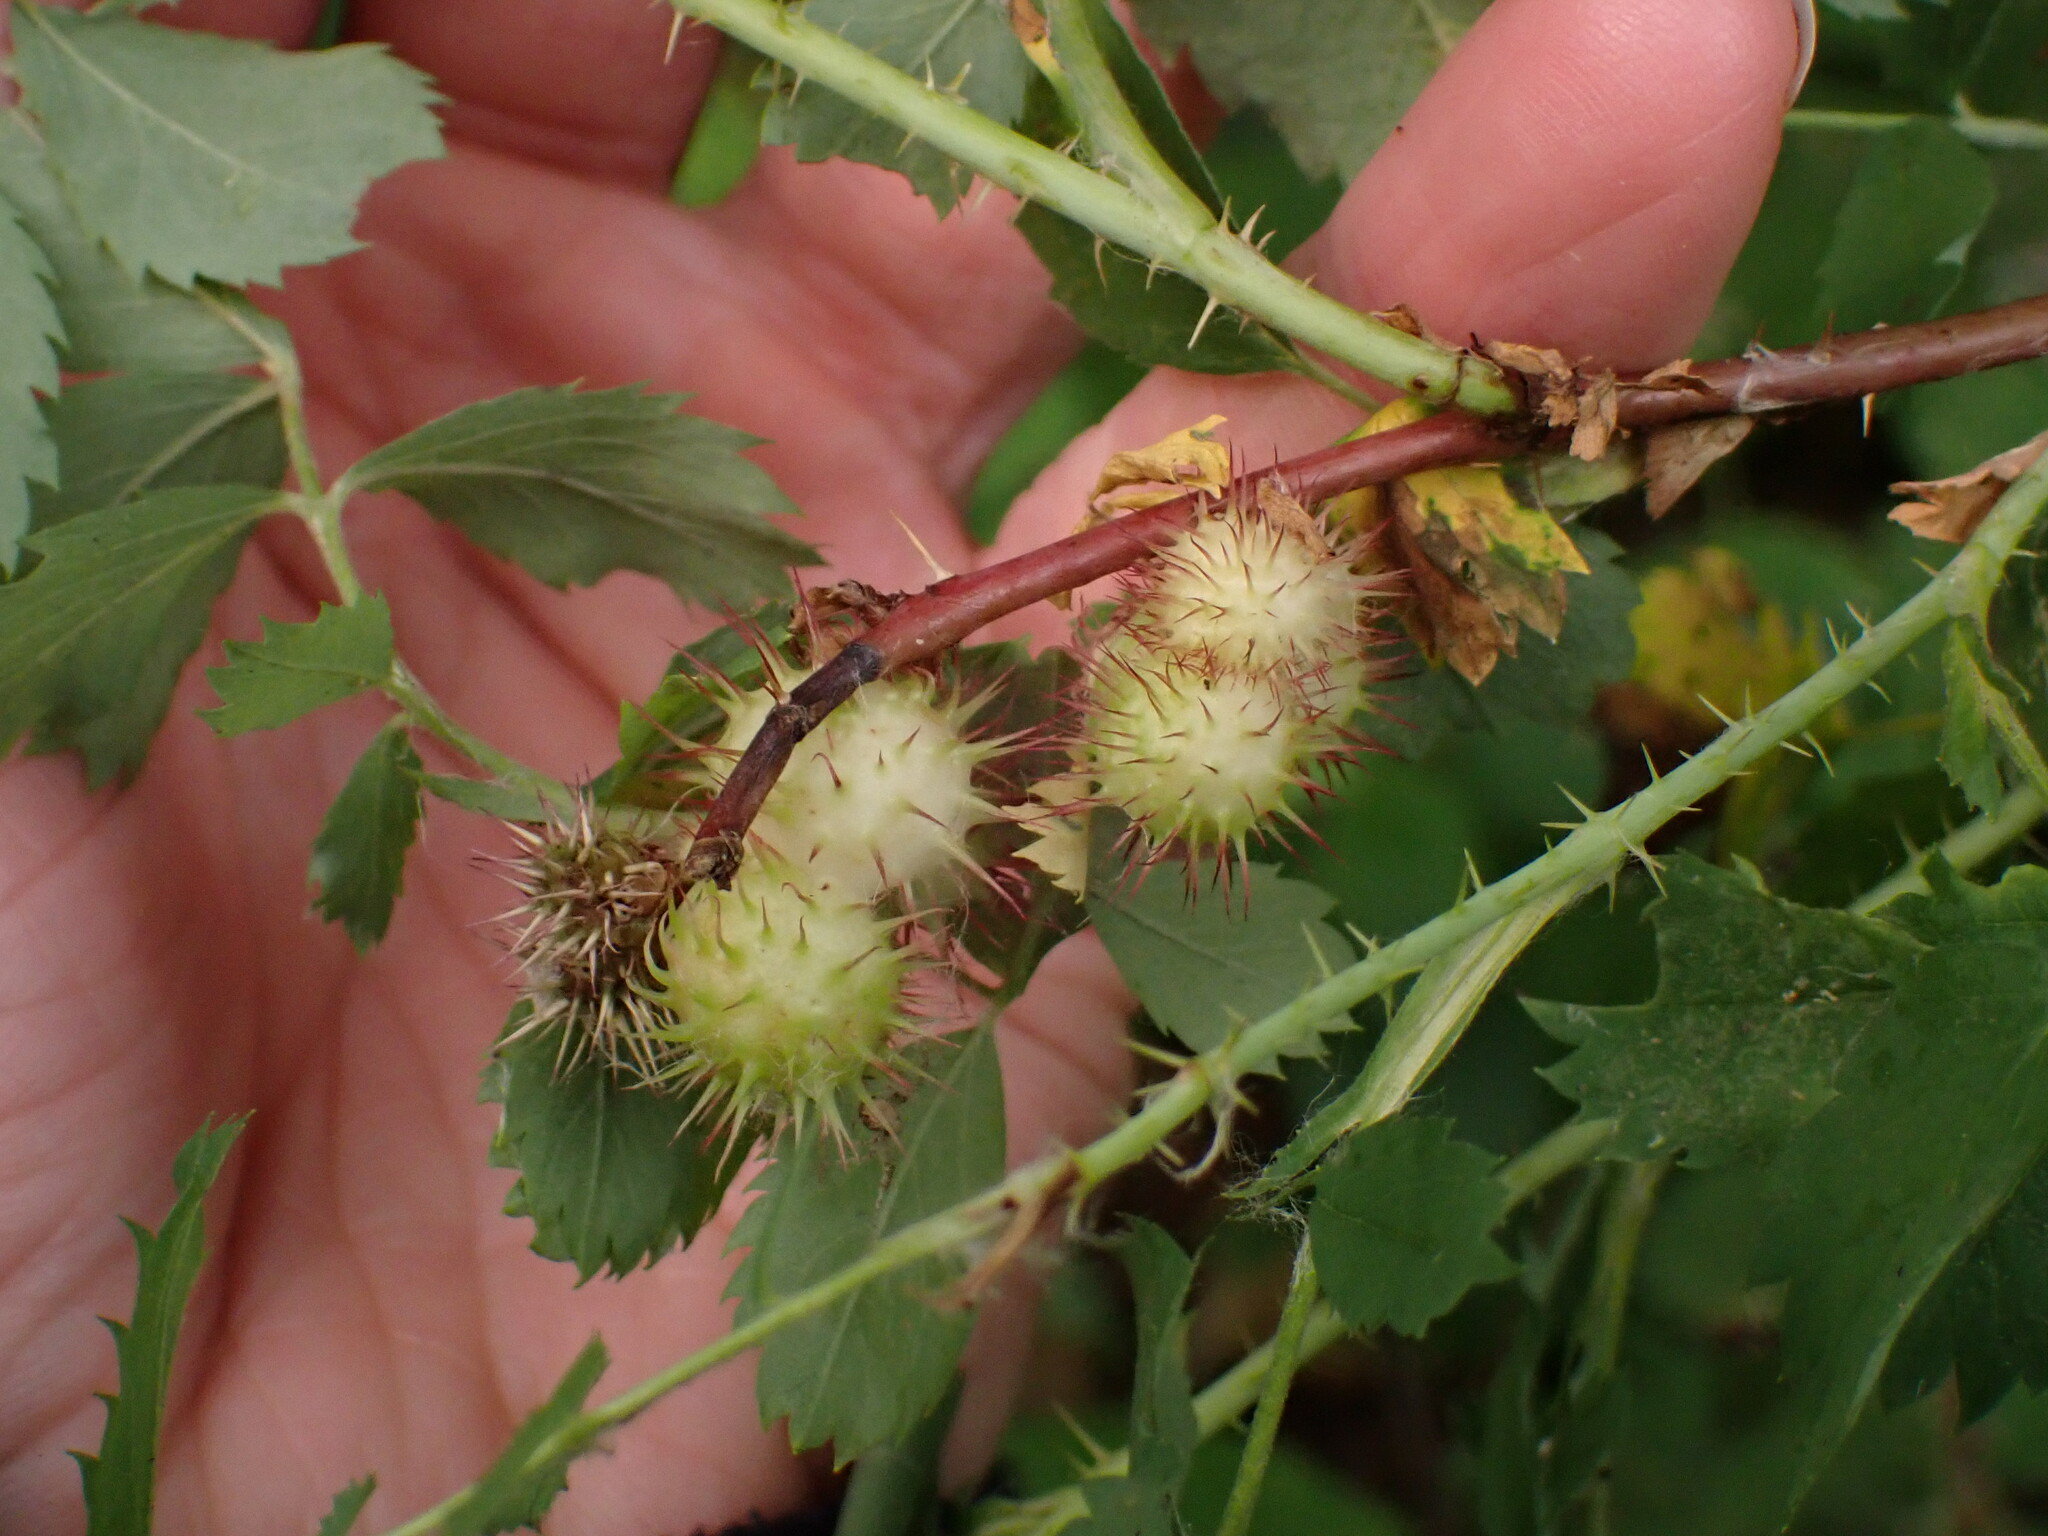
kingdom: Animalia
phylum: Arthropoda
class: Insecta
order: Hymenoptera
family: Cynipidae
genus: Diplolepis
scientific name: Diplolepis polita
